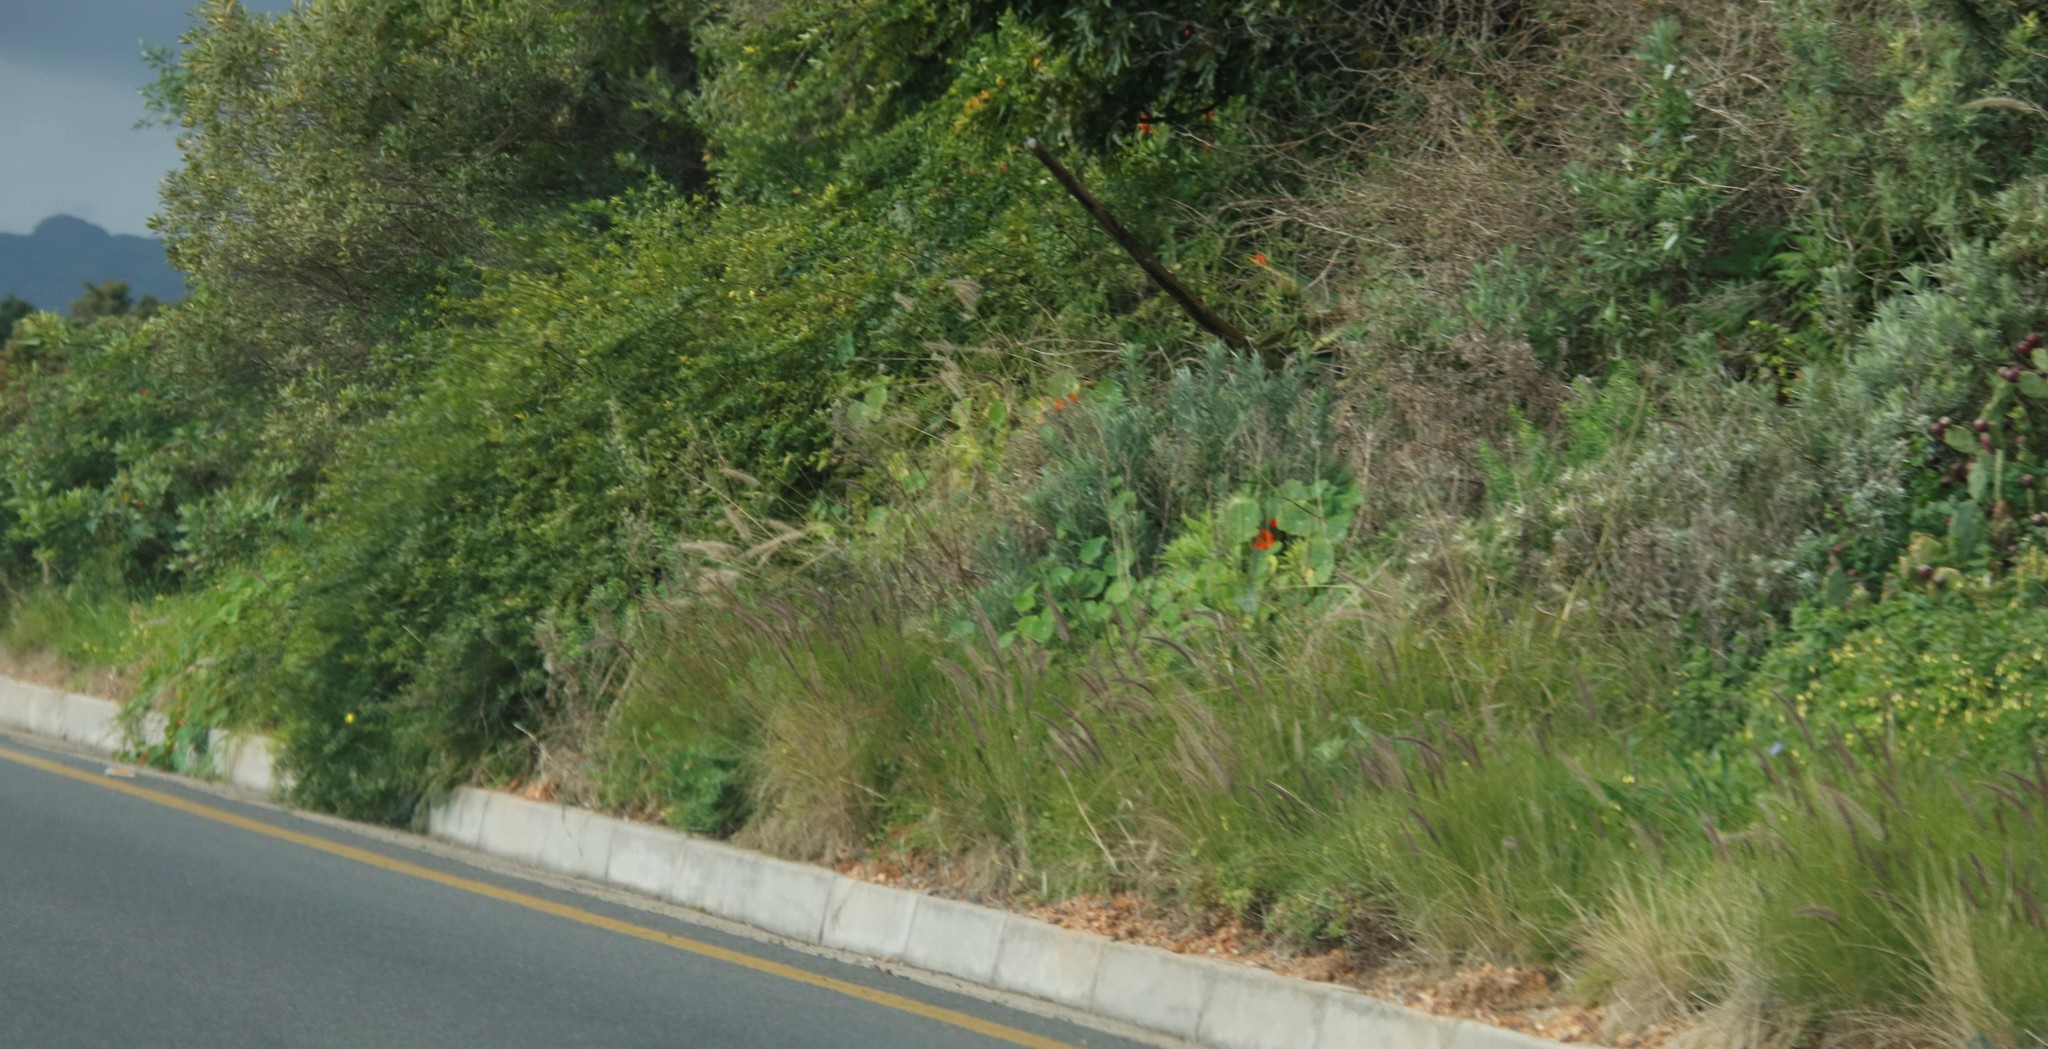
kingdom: Plantae
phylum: Tracheophyta
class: Magnoliopsida
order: Brassicales
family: Tropaeolaceae
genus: Tropaeolum
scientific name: Tropaeolum majus
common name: Nasturtium
